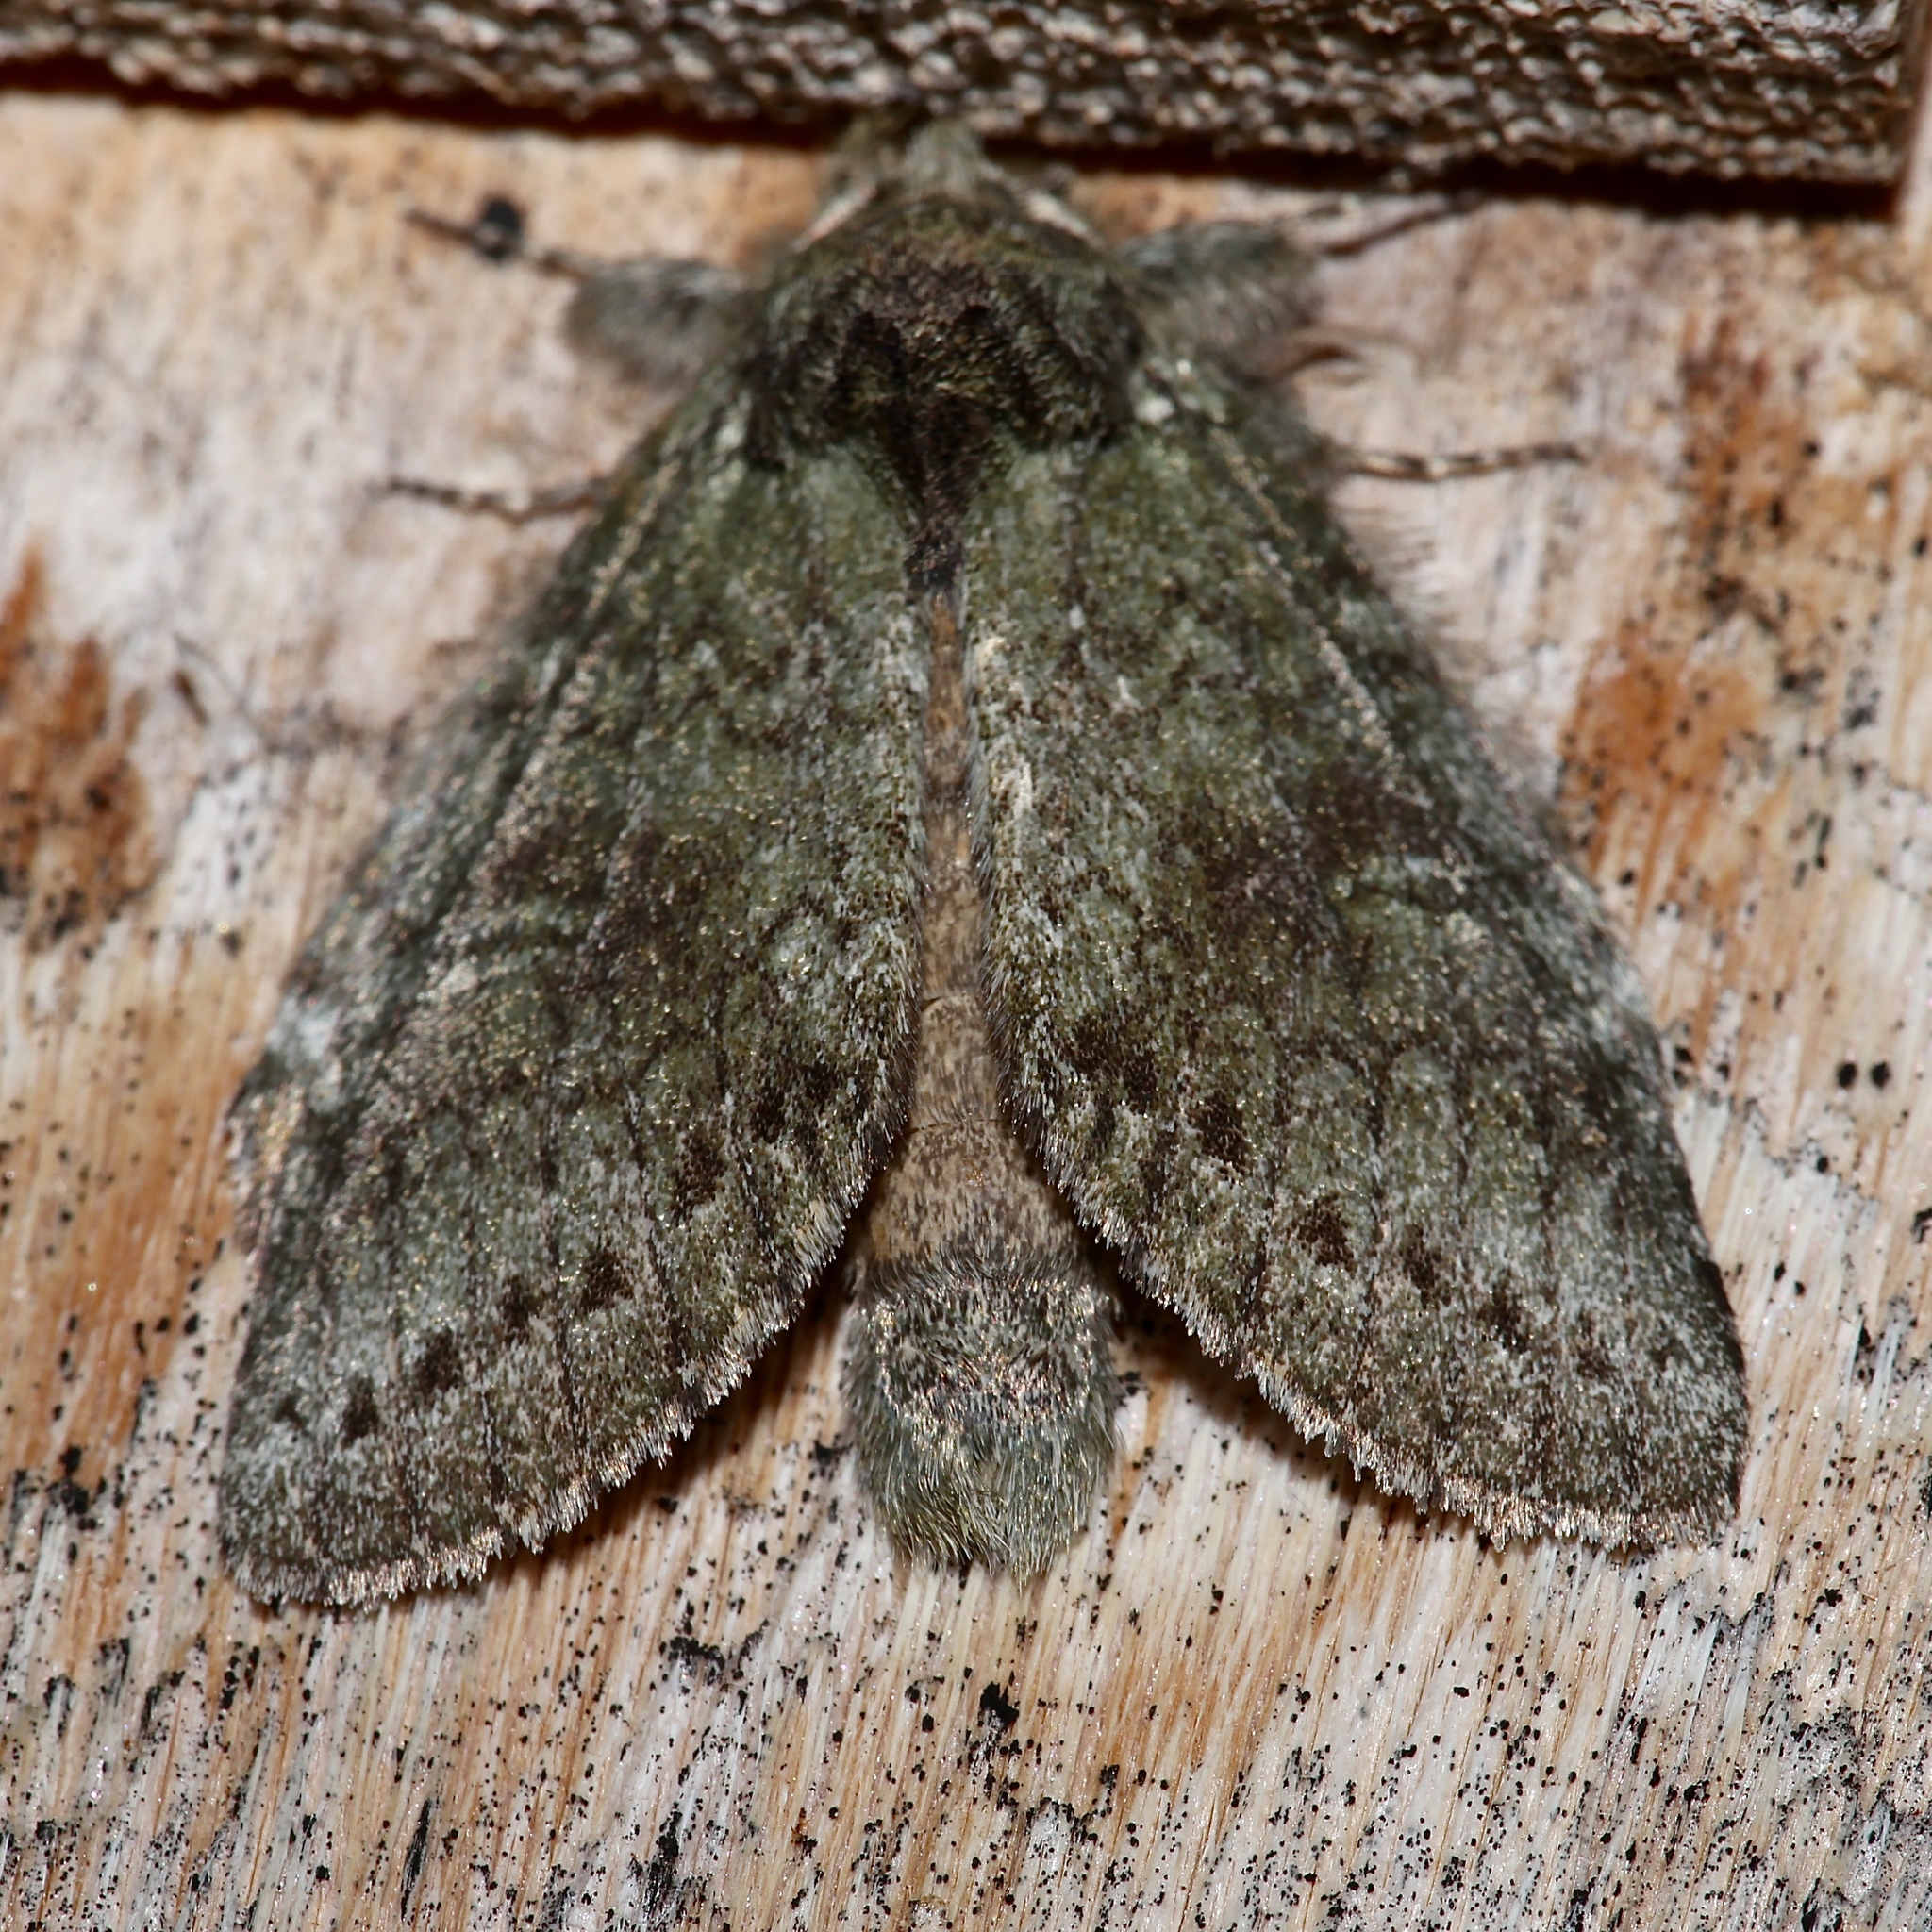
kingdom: Animalia
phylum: Arthropoda
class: Insecta
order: Lepidoptera
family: Notodontidae
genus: Disphragis
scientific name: Disphragis Cecrita guttivitta
